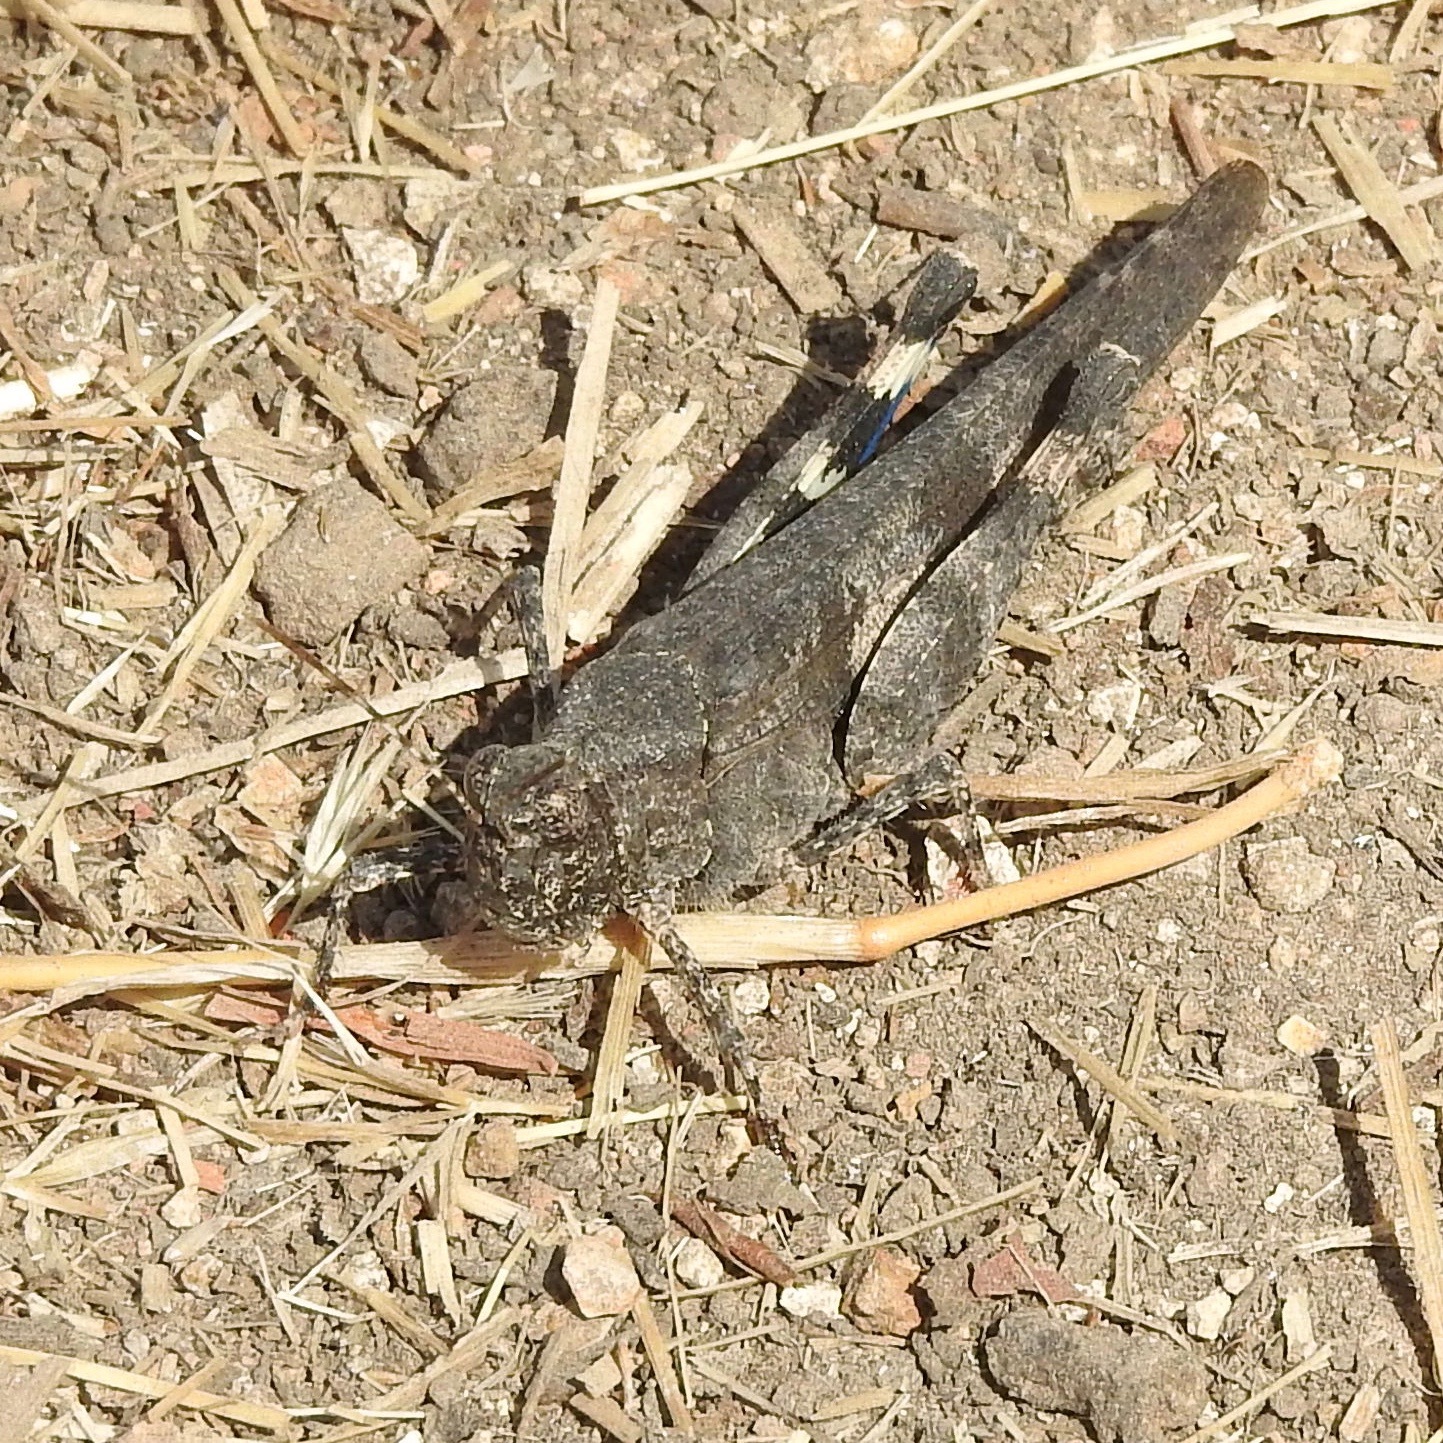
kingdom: Animalia
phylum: Arthropoda
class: Insecta
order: Orthoptera
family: Acrididae
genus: Trimerotropis
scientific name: Trimerotropis fontana
